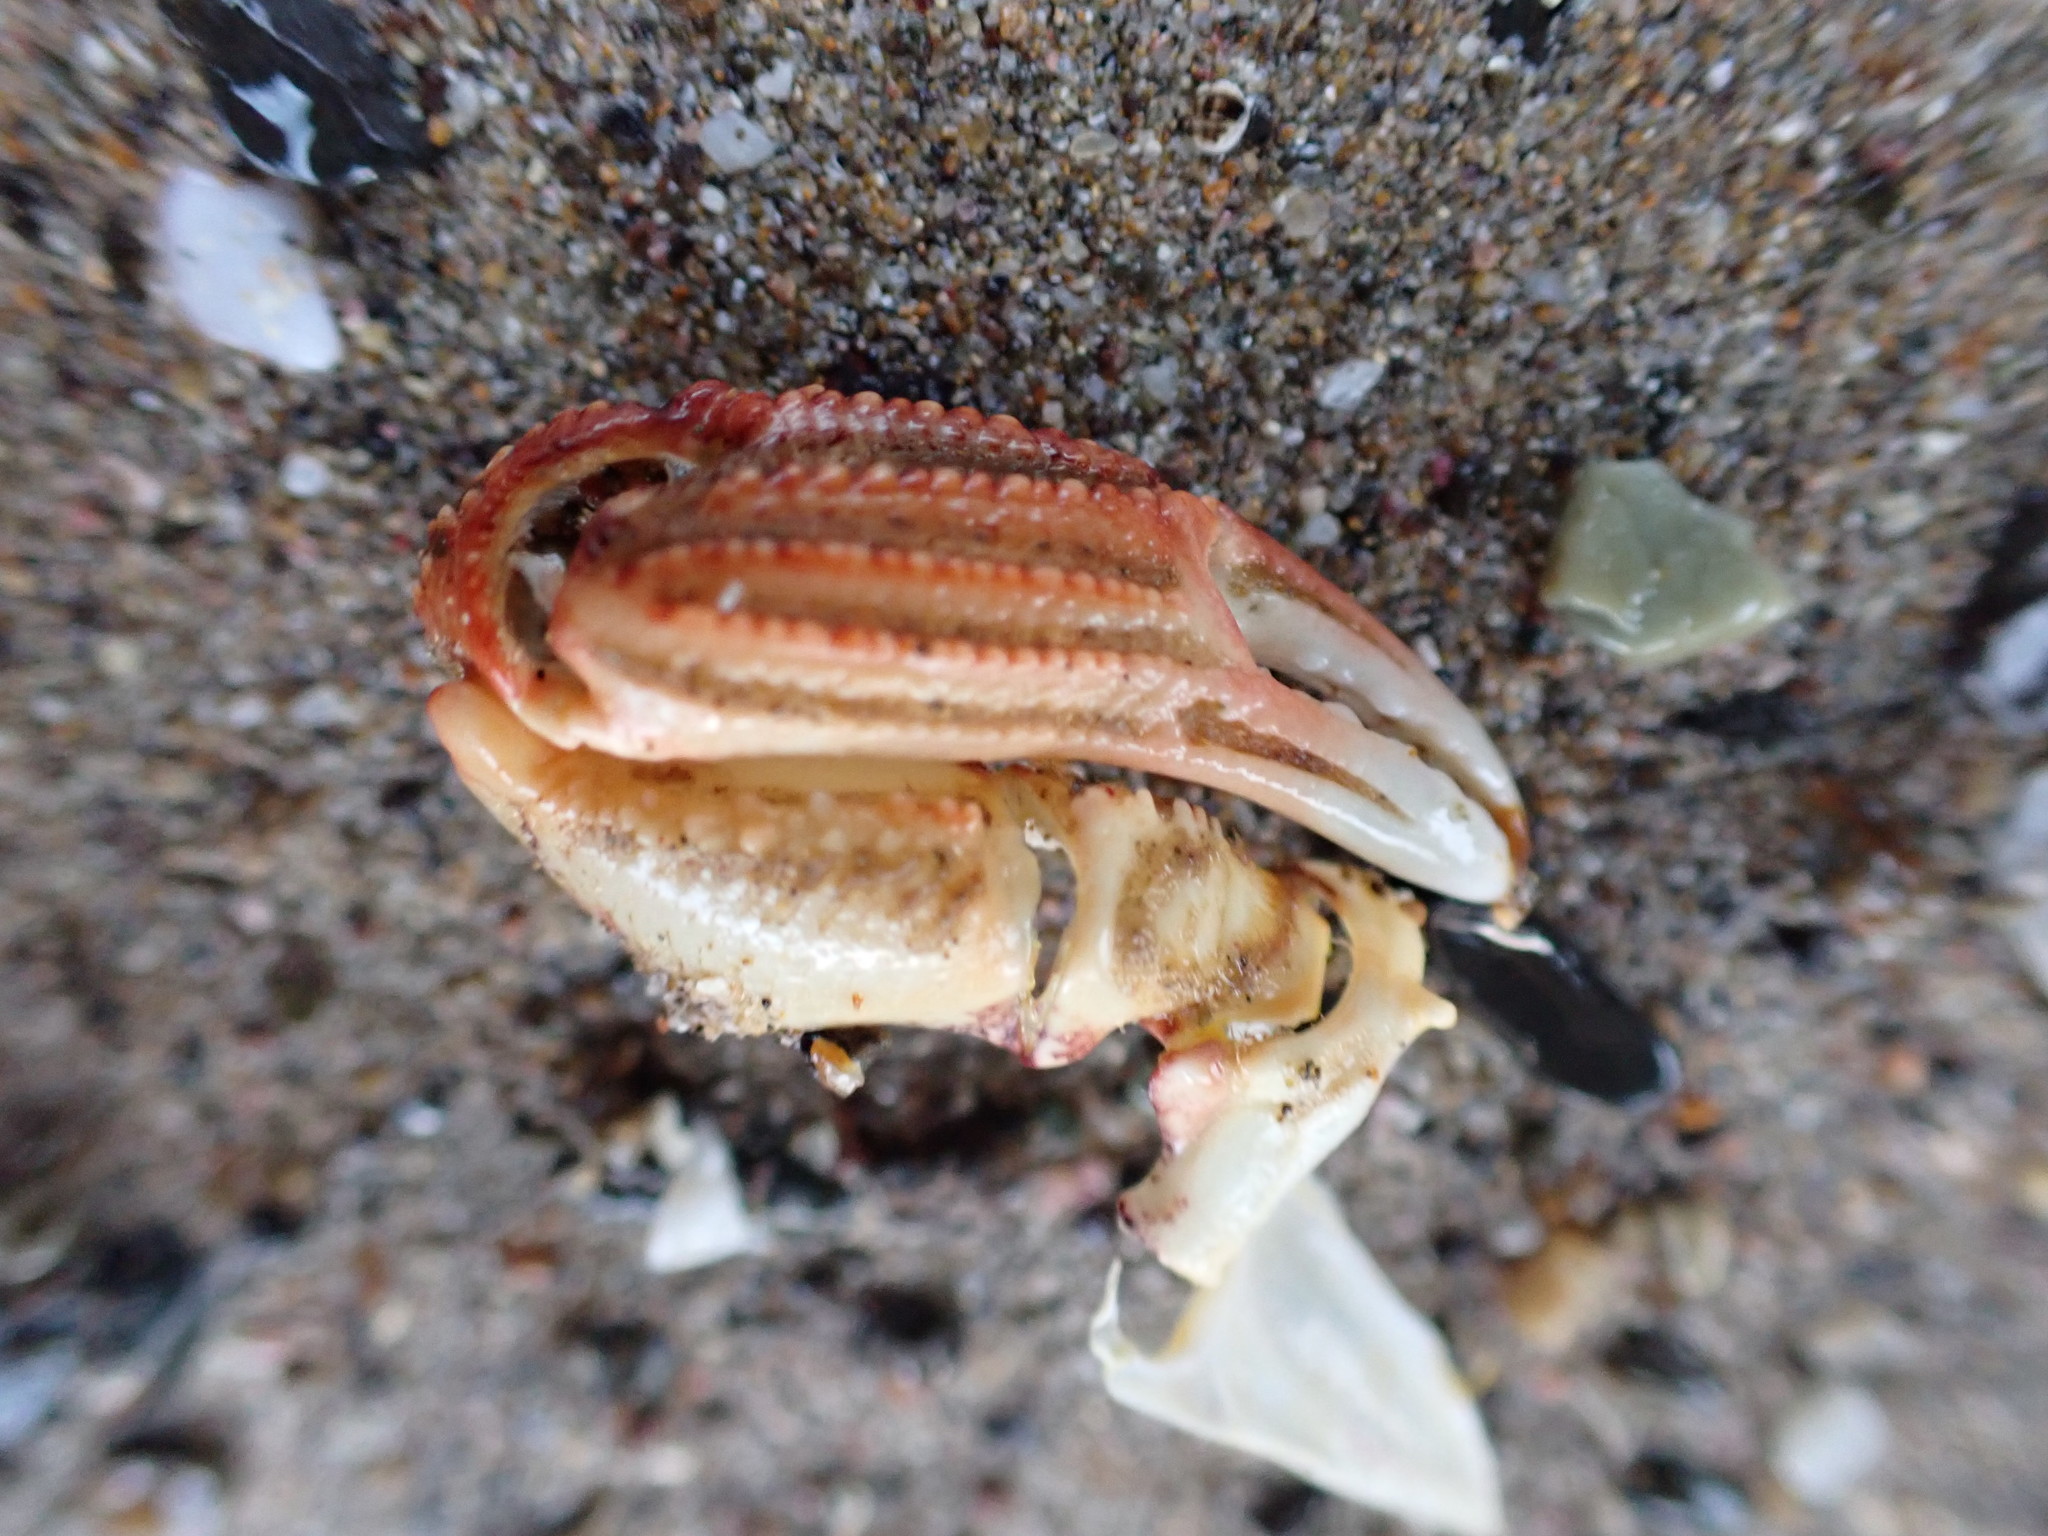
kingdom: Animalia
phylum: Arthropoda
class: Malacostraca
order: Decapoda
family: Plagusiidae
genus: Guinusia
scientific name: Guinusia chabrus
